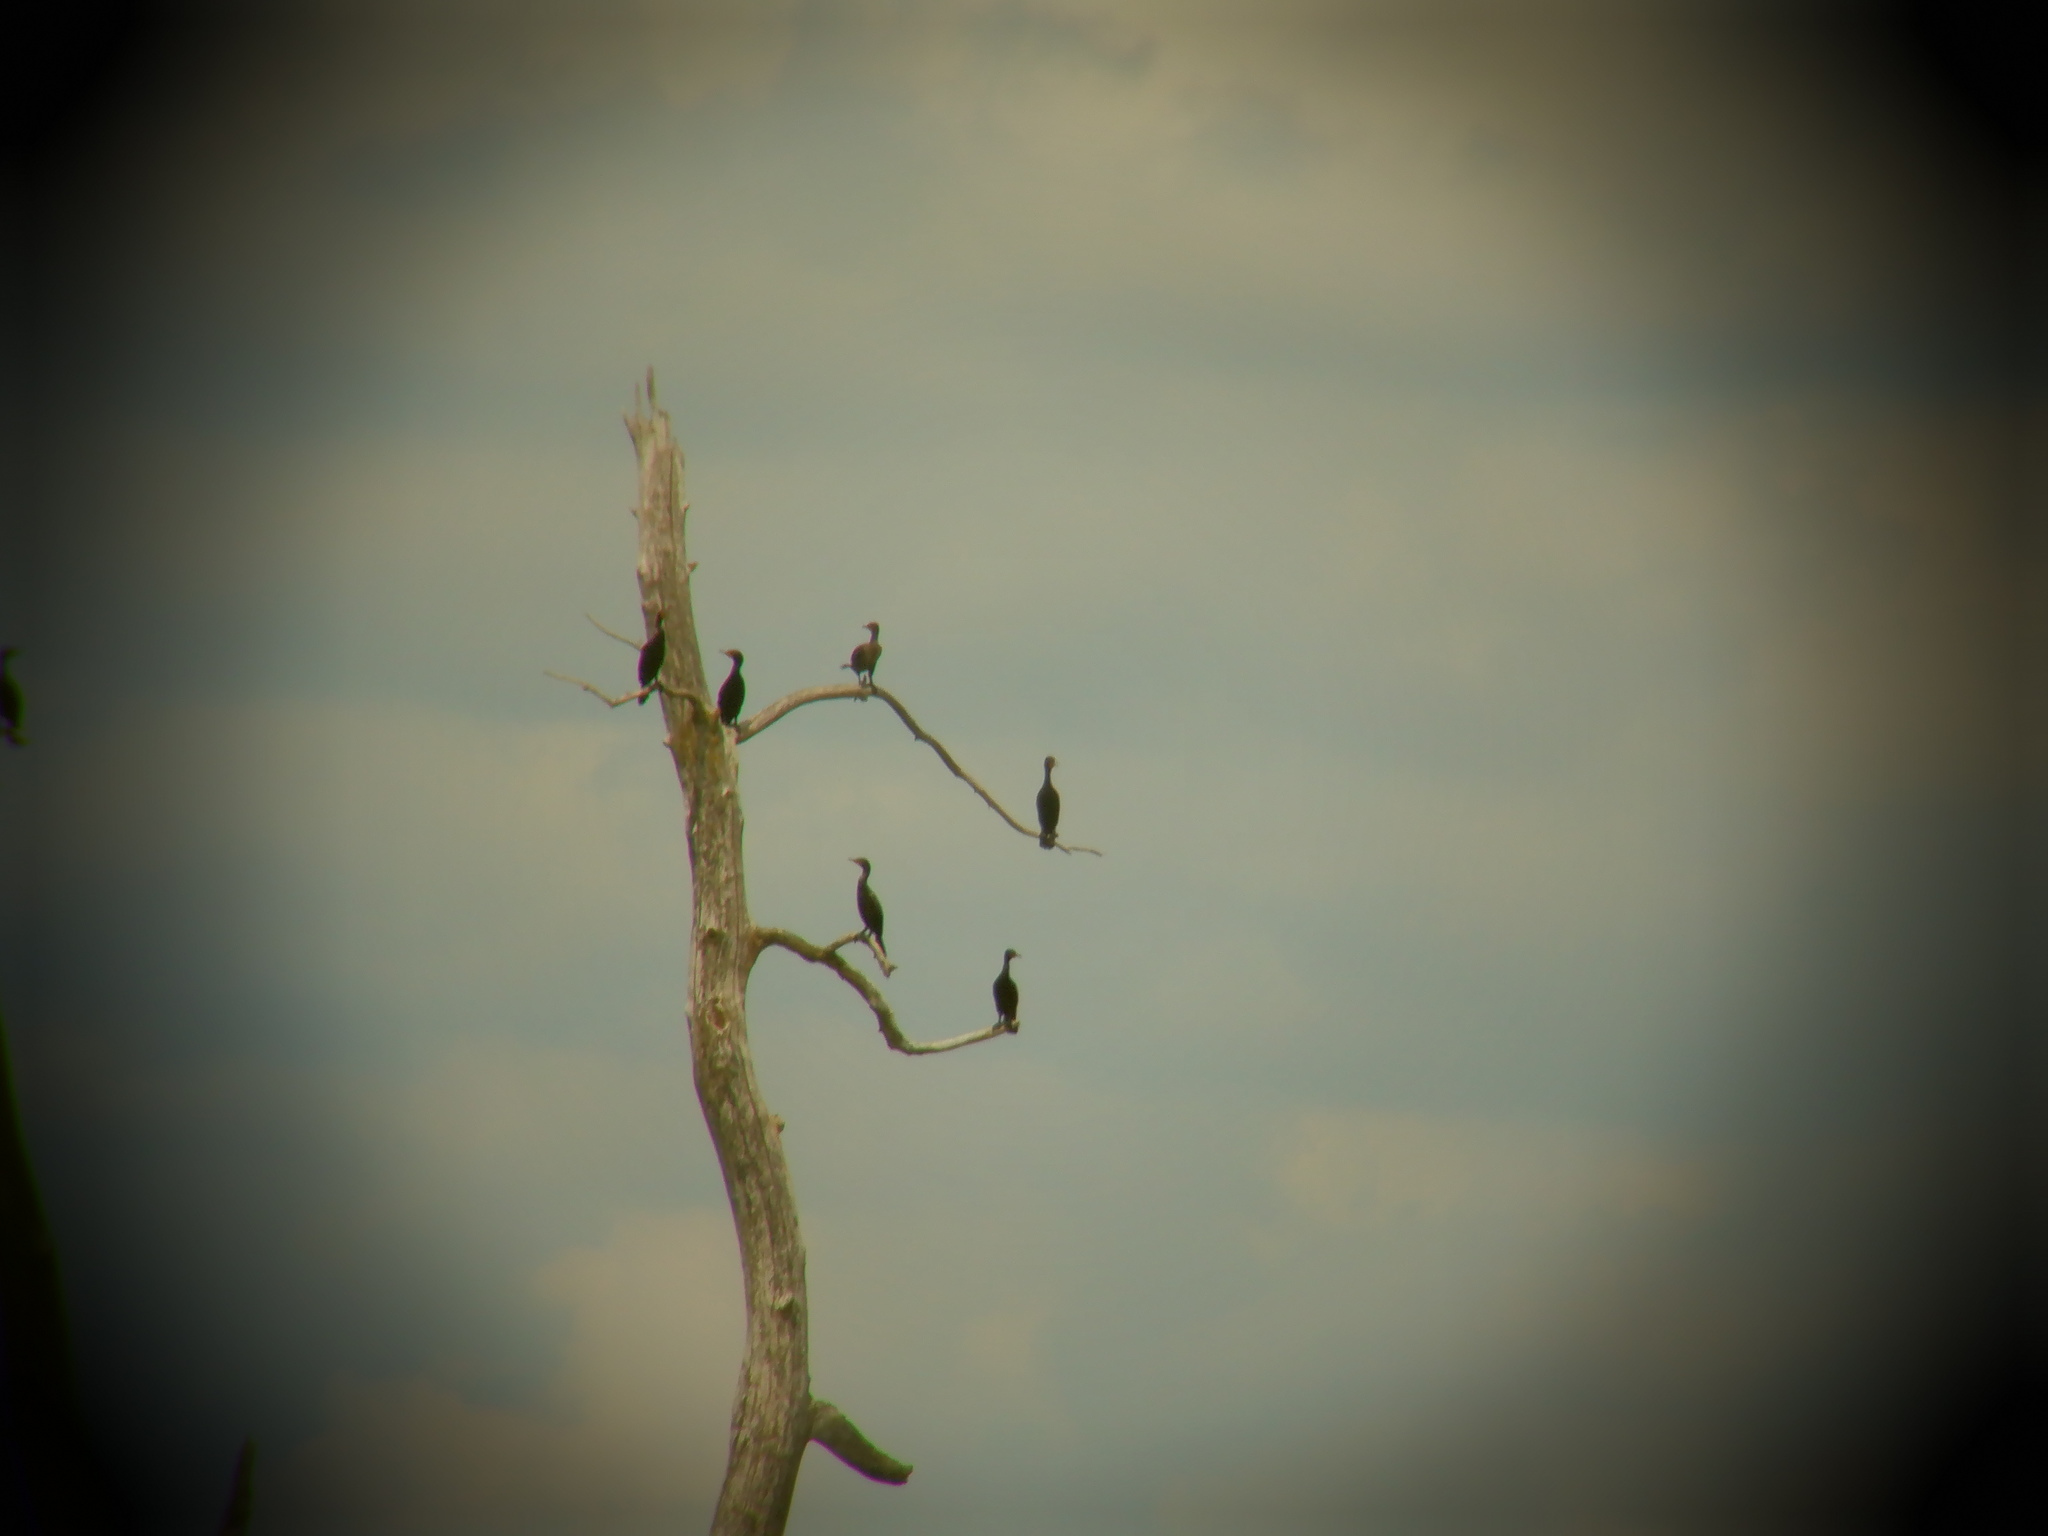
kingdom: Animalia
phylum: Chordata
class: Aves
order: Suliformes
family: Phalacrocoracidae
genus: Phalacrocorax
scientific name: Phalacrocorax auritus
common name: Double-crested cormorant
